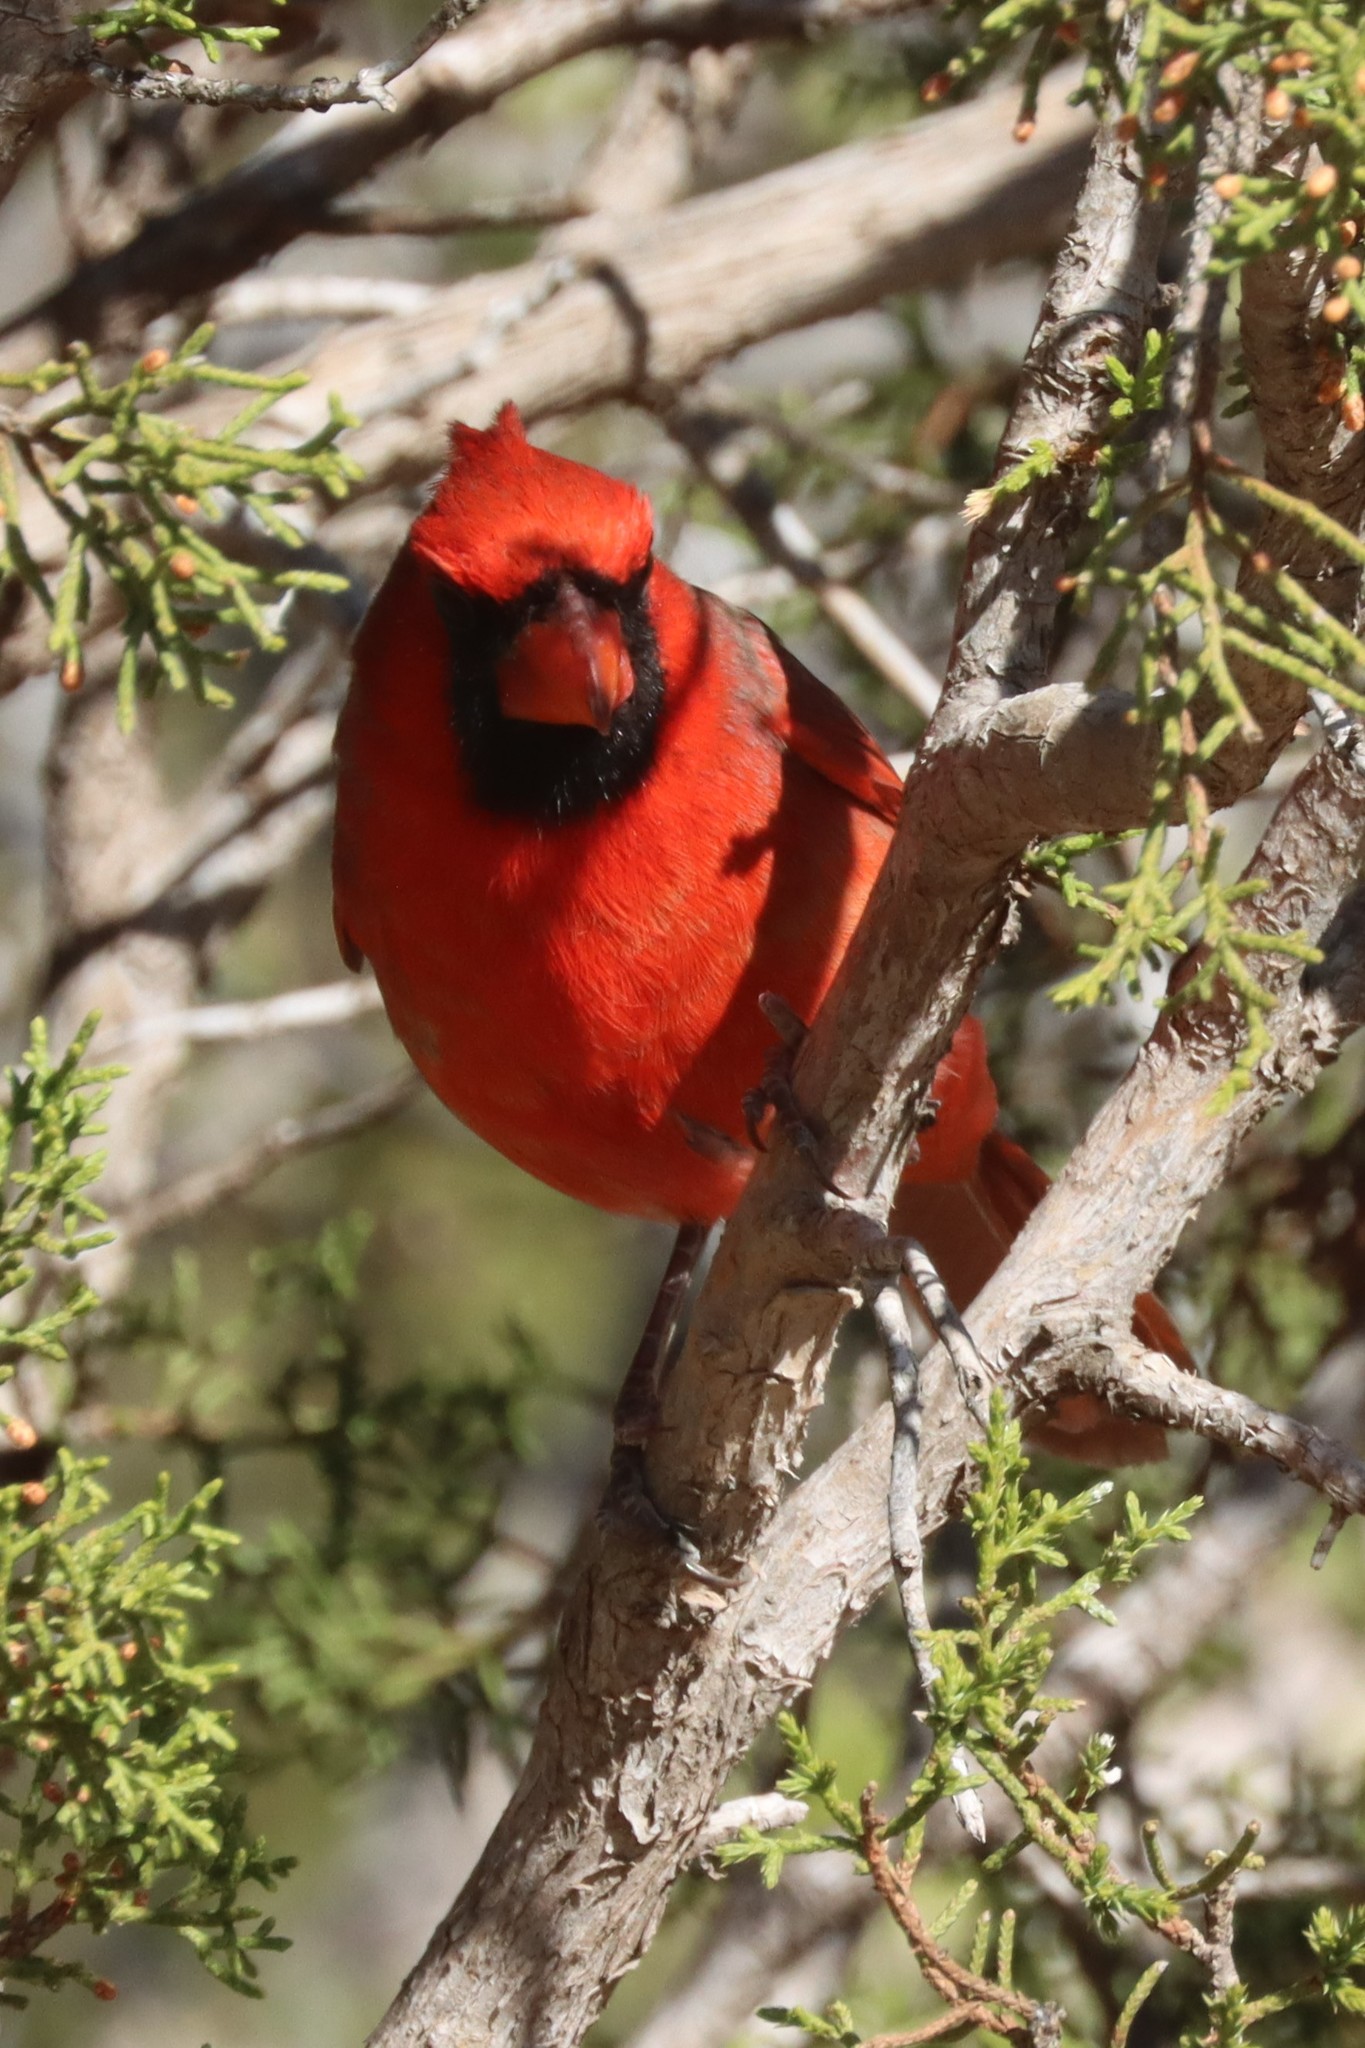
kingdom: Animalia
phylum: Chordata
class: Aves
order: Passeriformes
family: Cardinalidae
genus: Cardinalis
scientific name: Cardinalis cardinalis
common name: Northern cardinal
